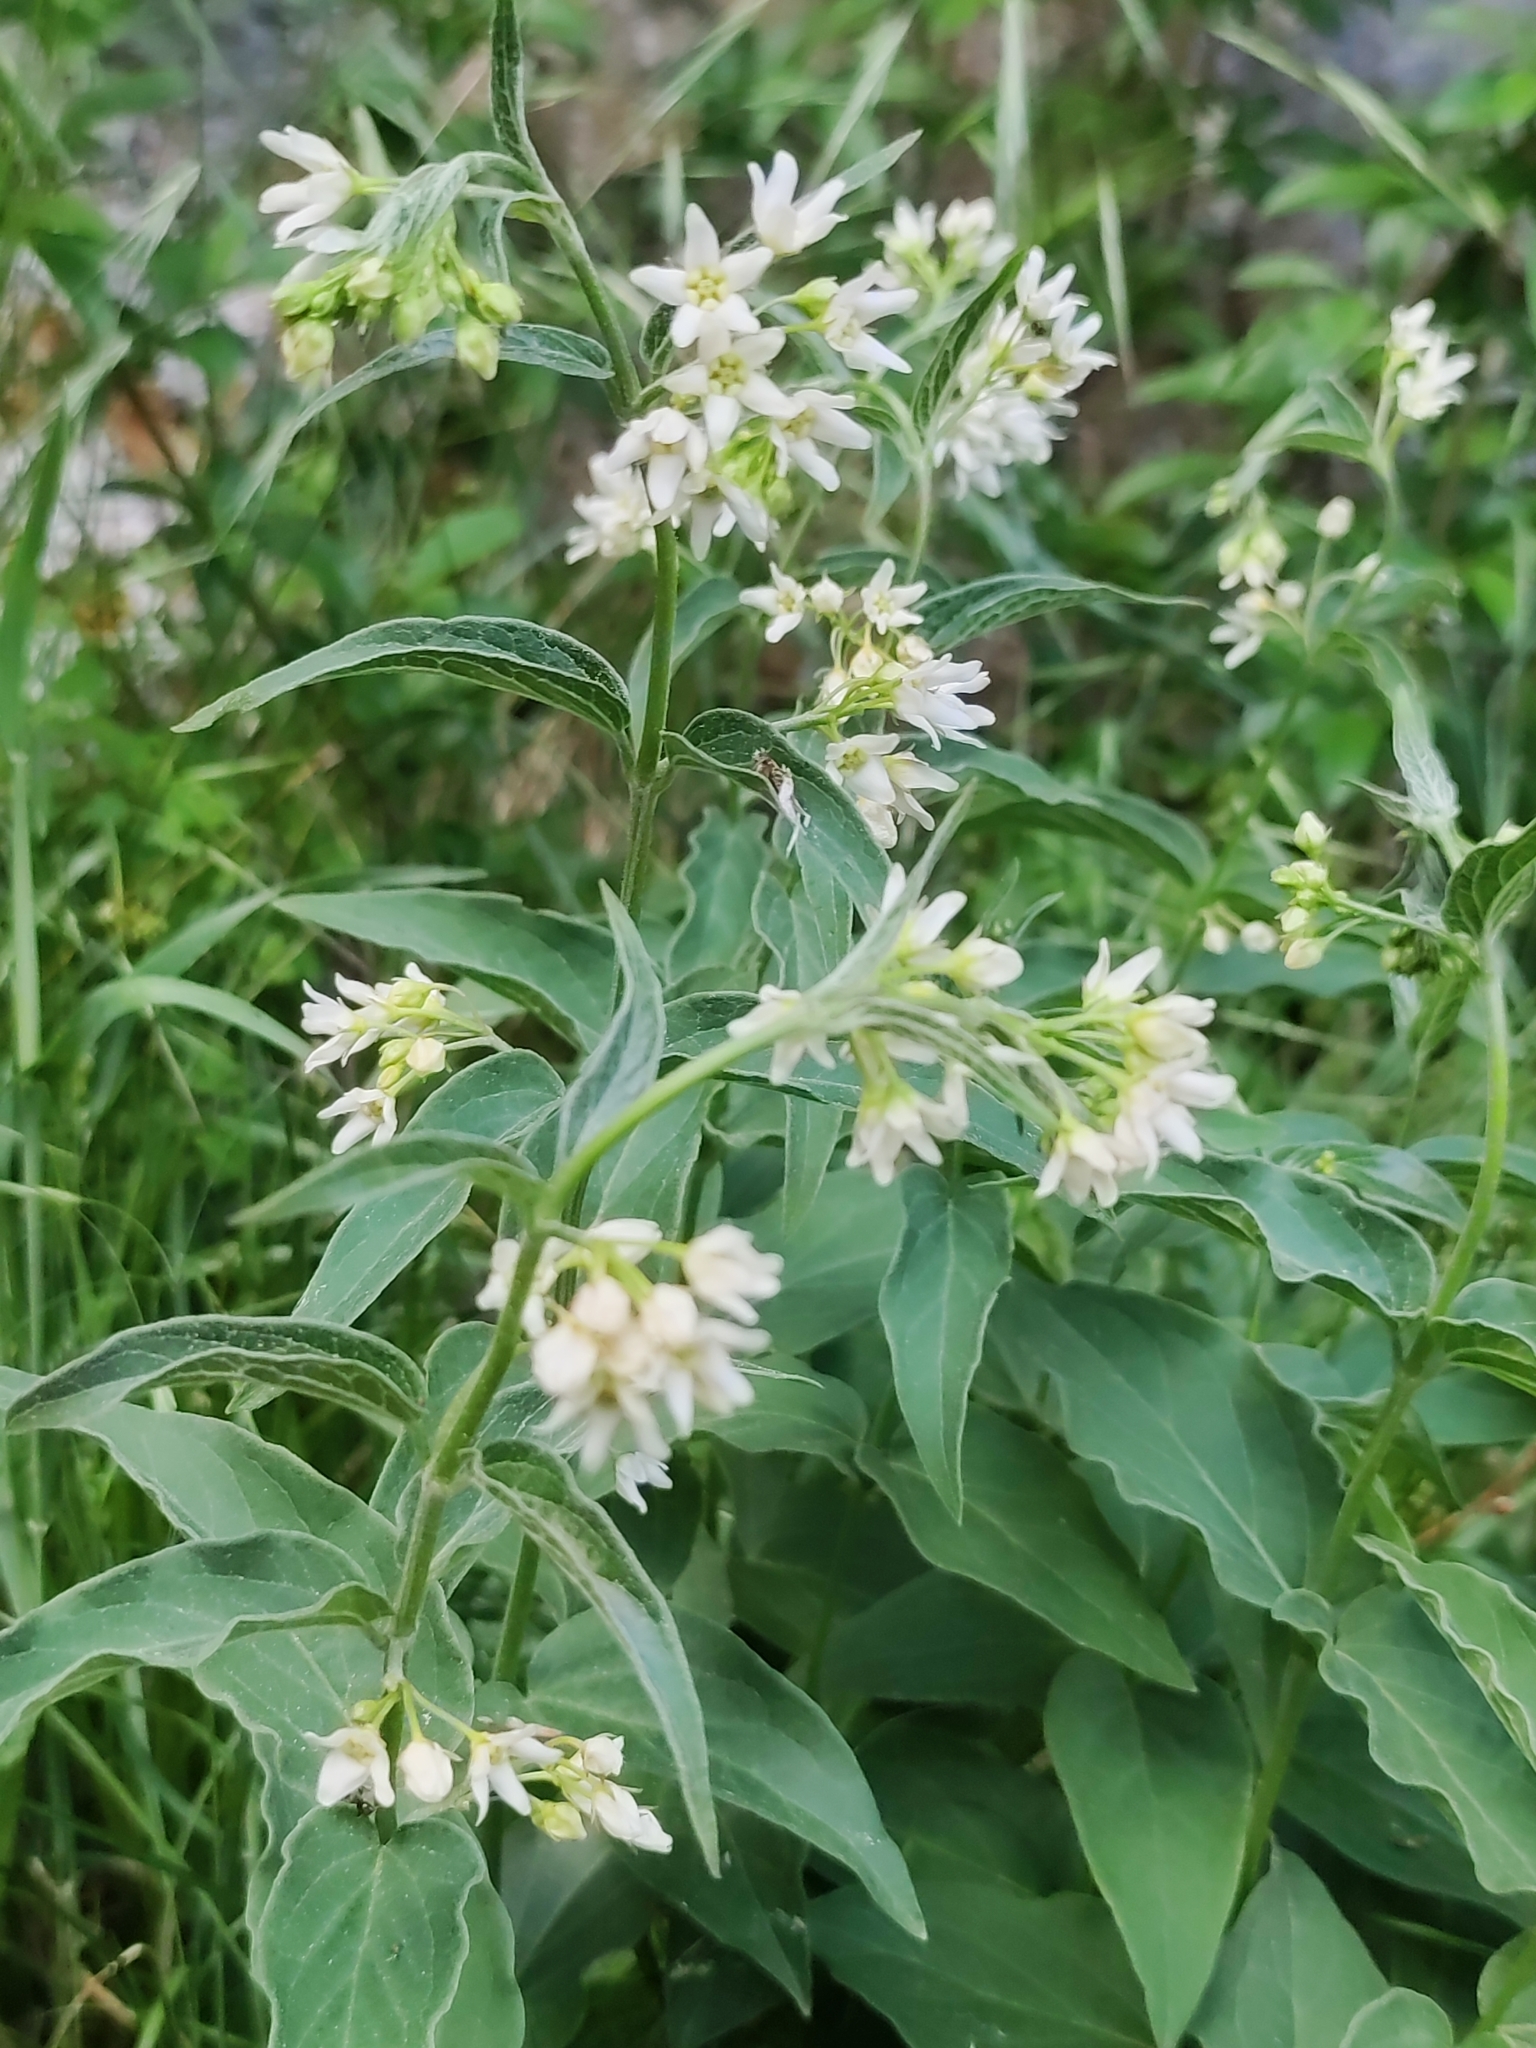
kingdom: Plantae
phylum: Tracheophyta
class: Magnoliopsida
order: Gentianales
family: Apocynaceae
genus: Vincetoxicum
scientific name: Vincetoxicum hirundinaria
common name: White swallowwort
